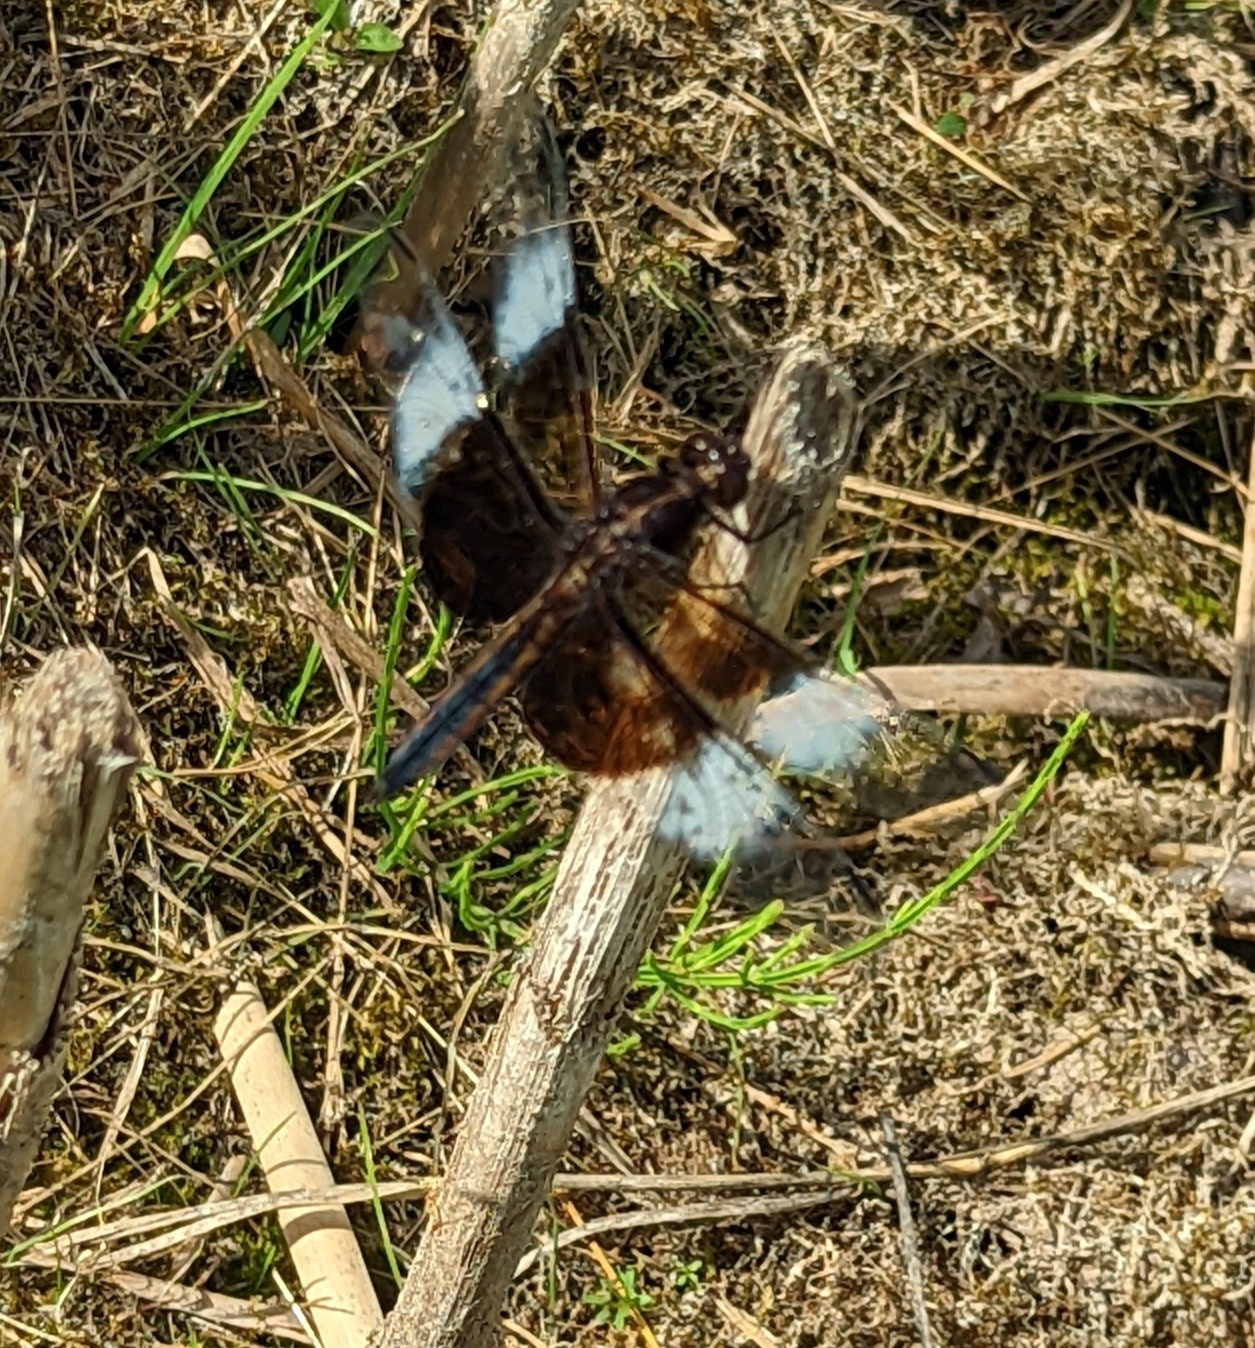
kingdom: Animalia
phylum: Arthropoda
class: Insecta
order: Odonata
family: Libellulidae
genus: Libellula
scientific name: Libellula luctuosa
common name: Widow skimmer
